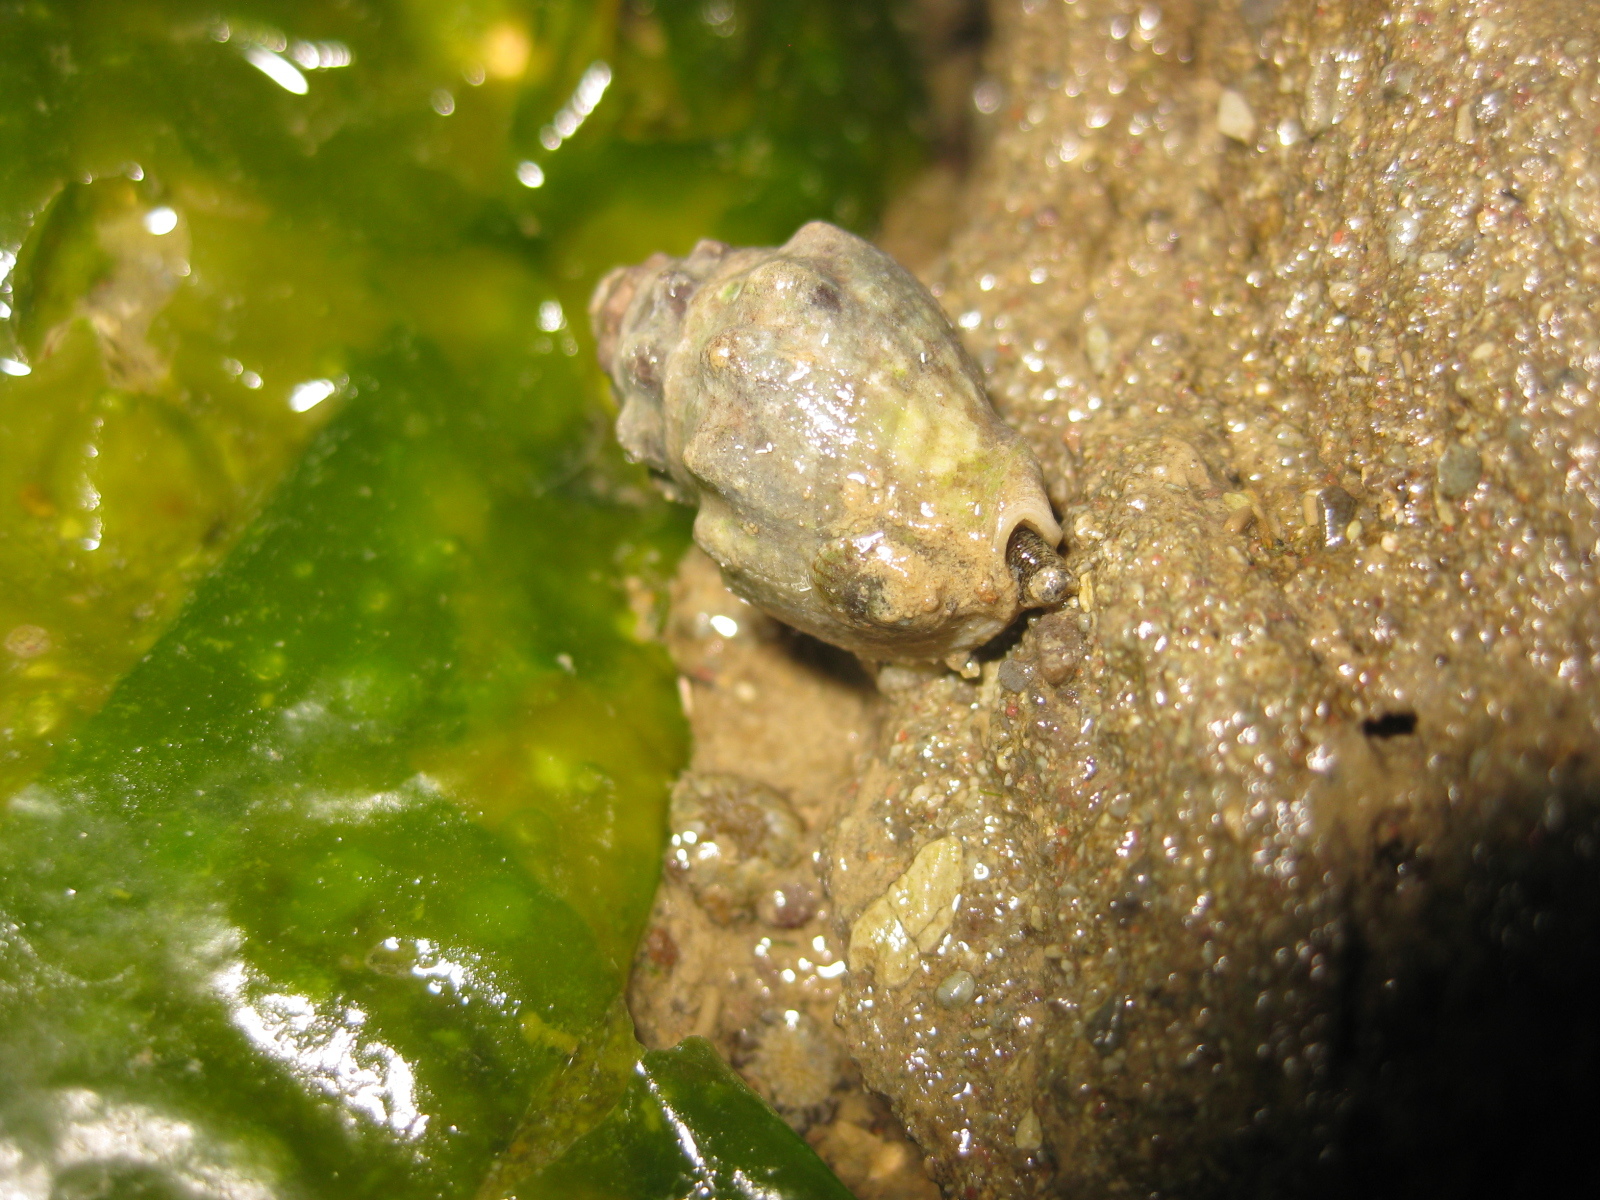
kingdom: Animalia
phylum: Mollusca
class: Gastropoda
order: Neogastropoda
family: Cominellidae
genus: Cominella
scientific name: Cominella glandiformis
